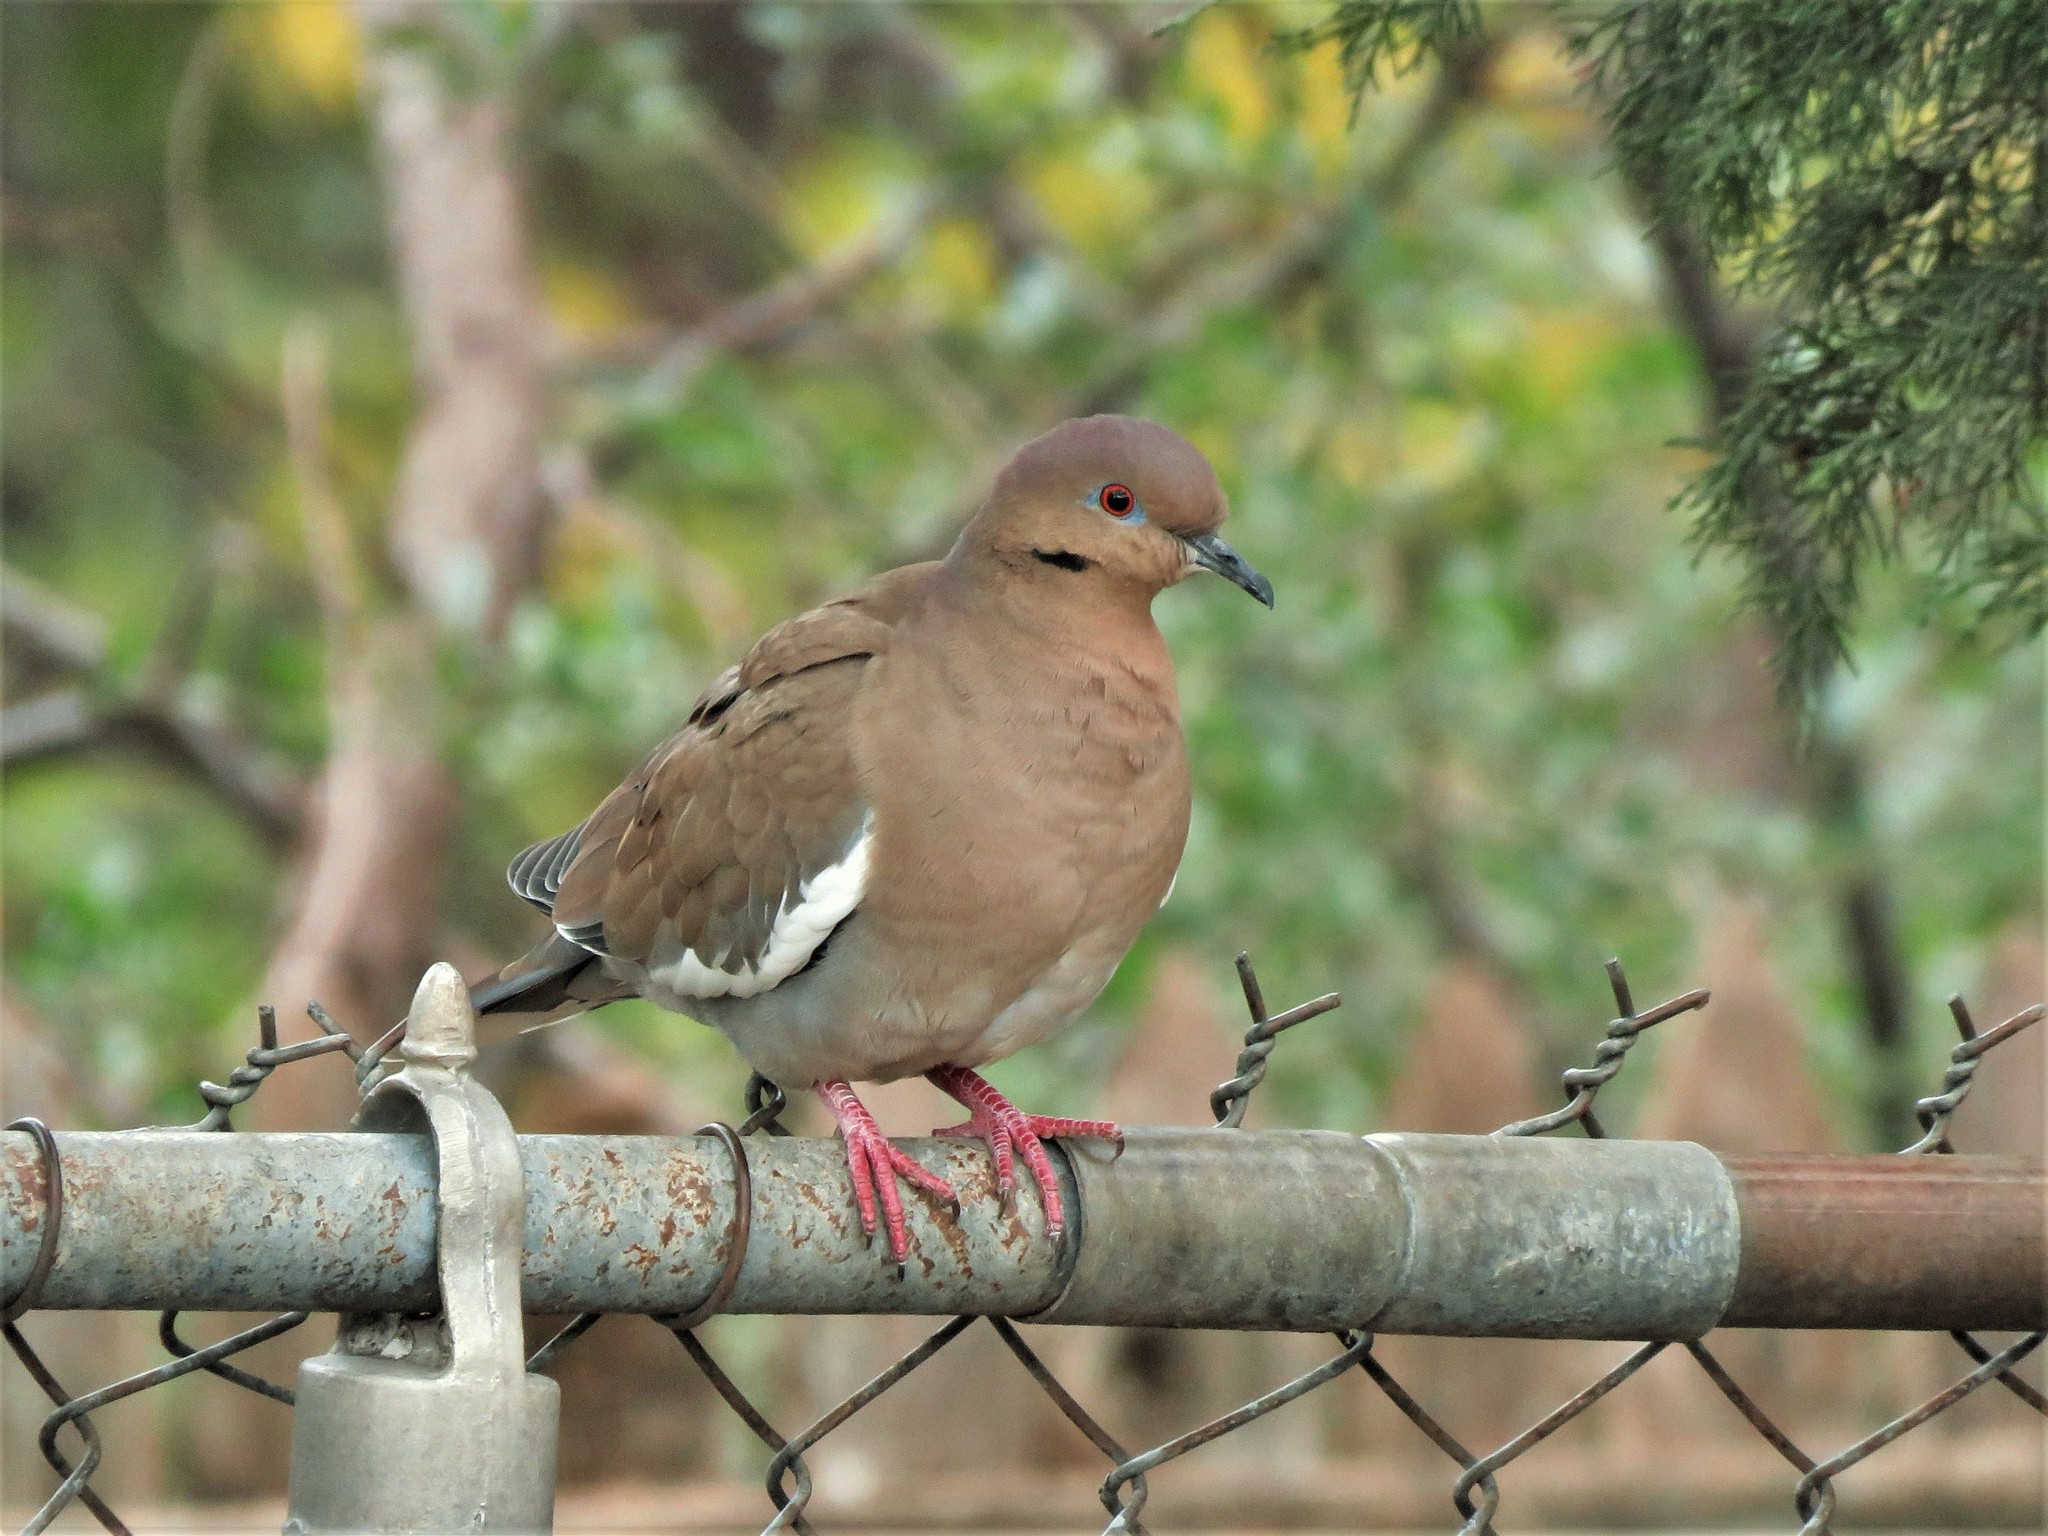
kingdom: Animalia
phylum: Chordata
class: Aves
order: Columbiformes
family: Columbidae
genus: Zenaida
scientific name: Zenaida asiatica
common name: White-winged dove
